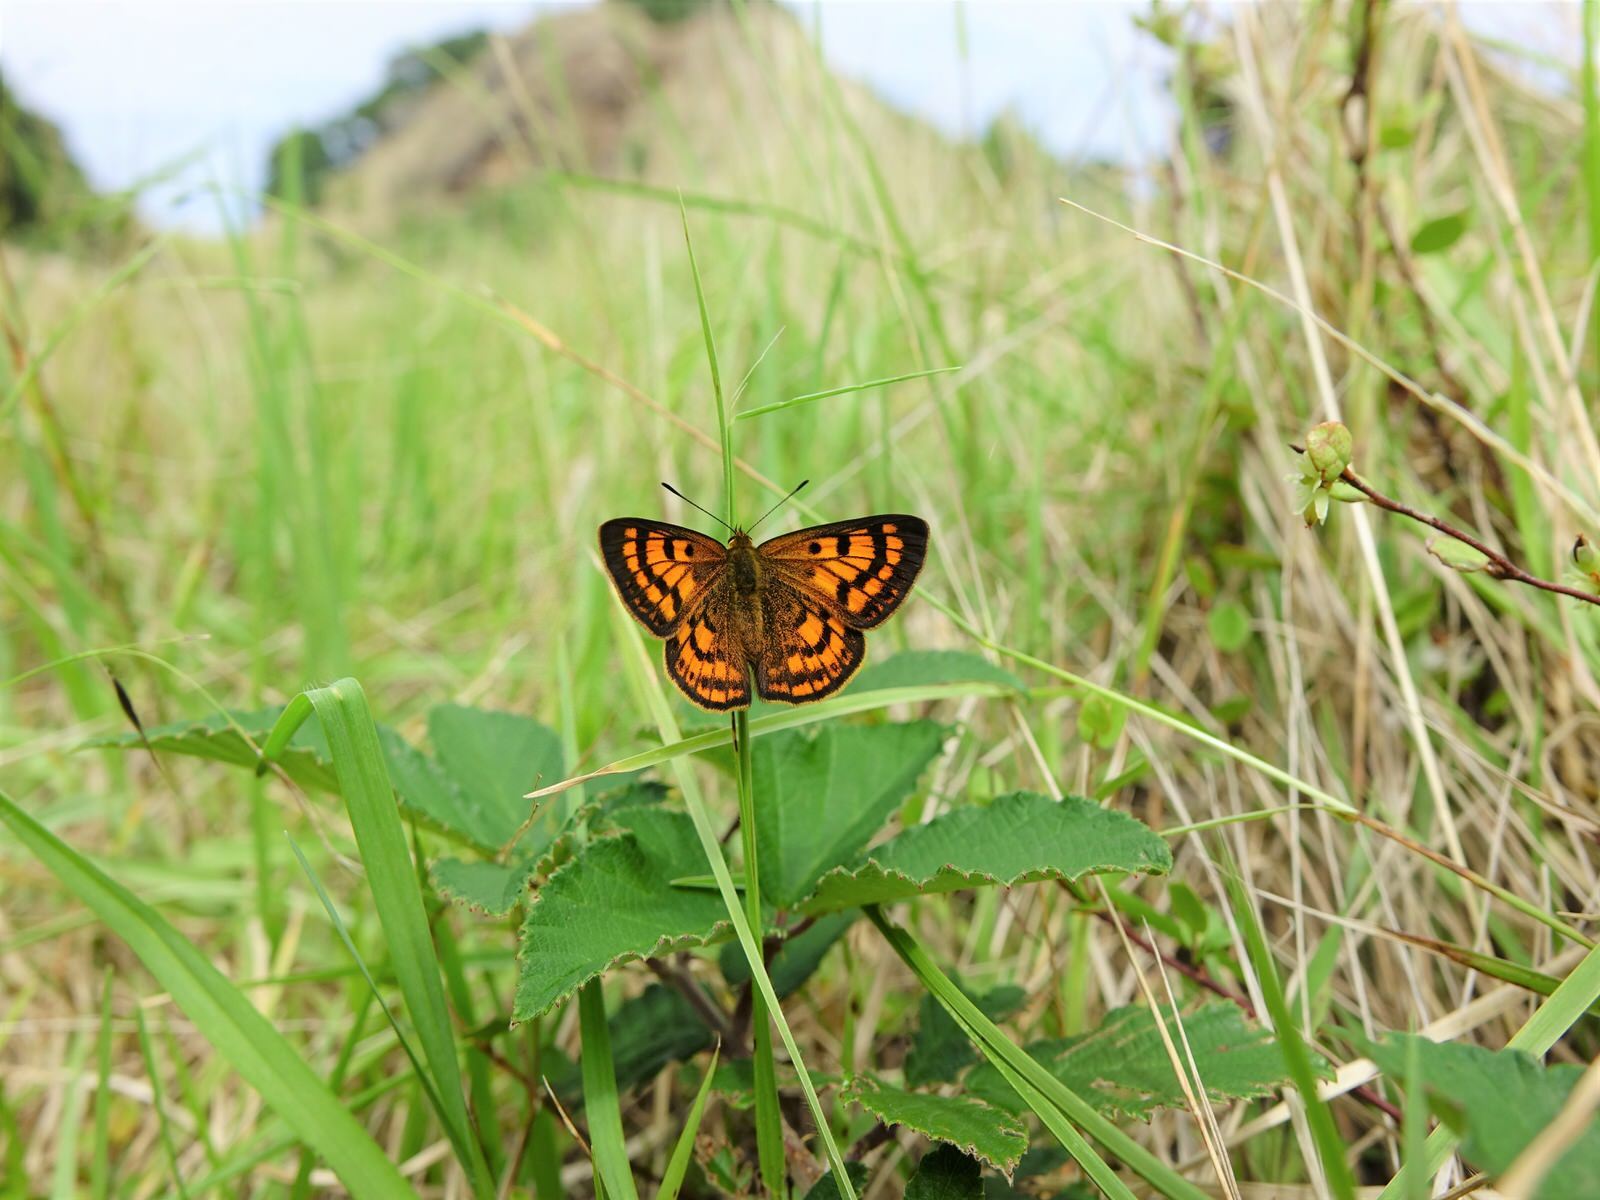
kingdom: Animalia
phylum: Arthropoda
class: Insecta
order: Lepidoptera
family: Lycaenidae
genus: Lycaena
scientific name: Lycaena salustius
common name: North island coastal copper
